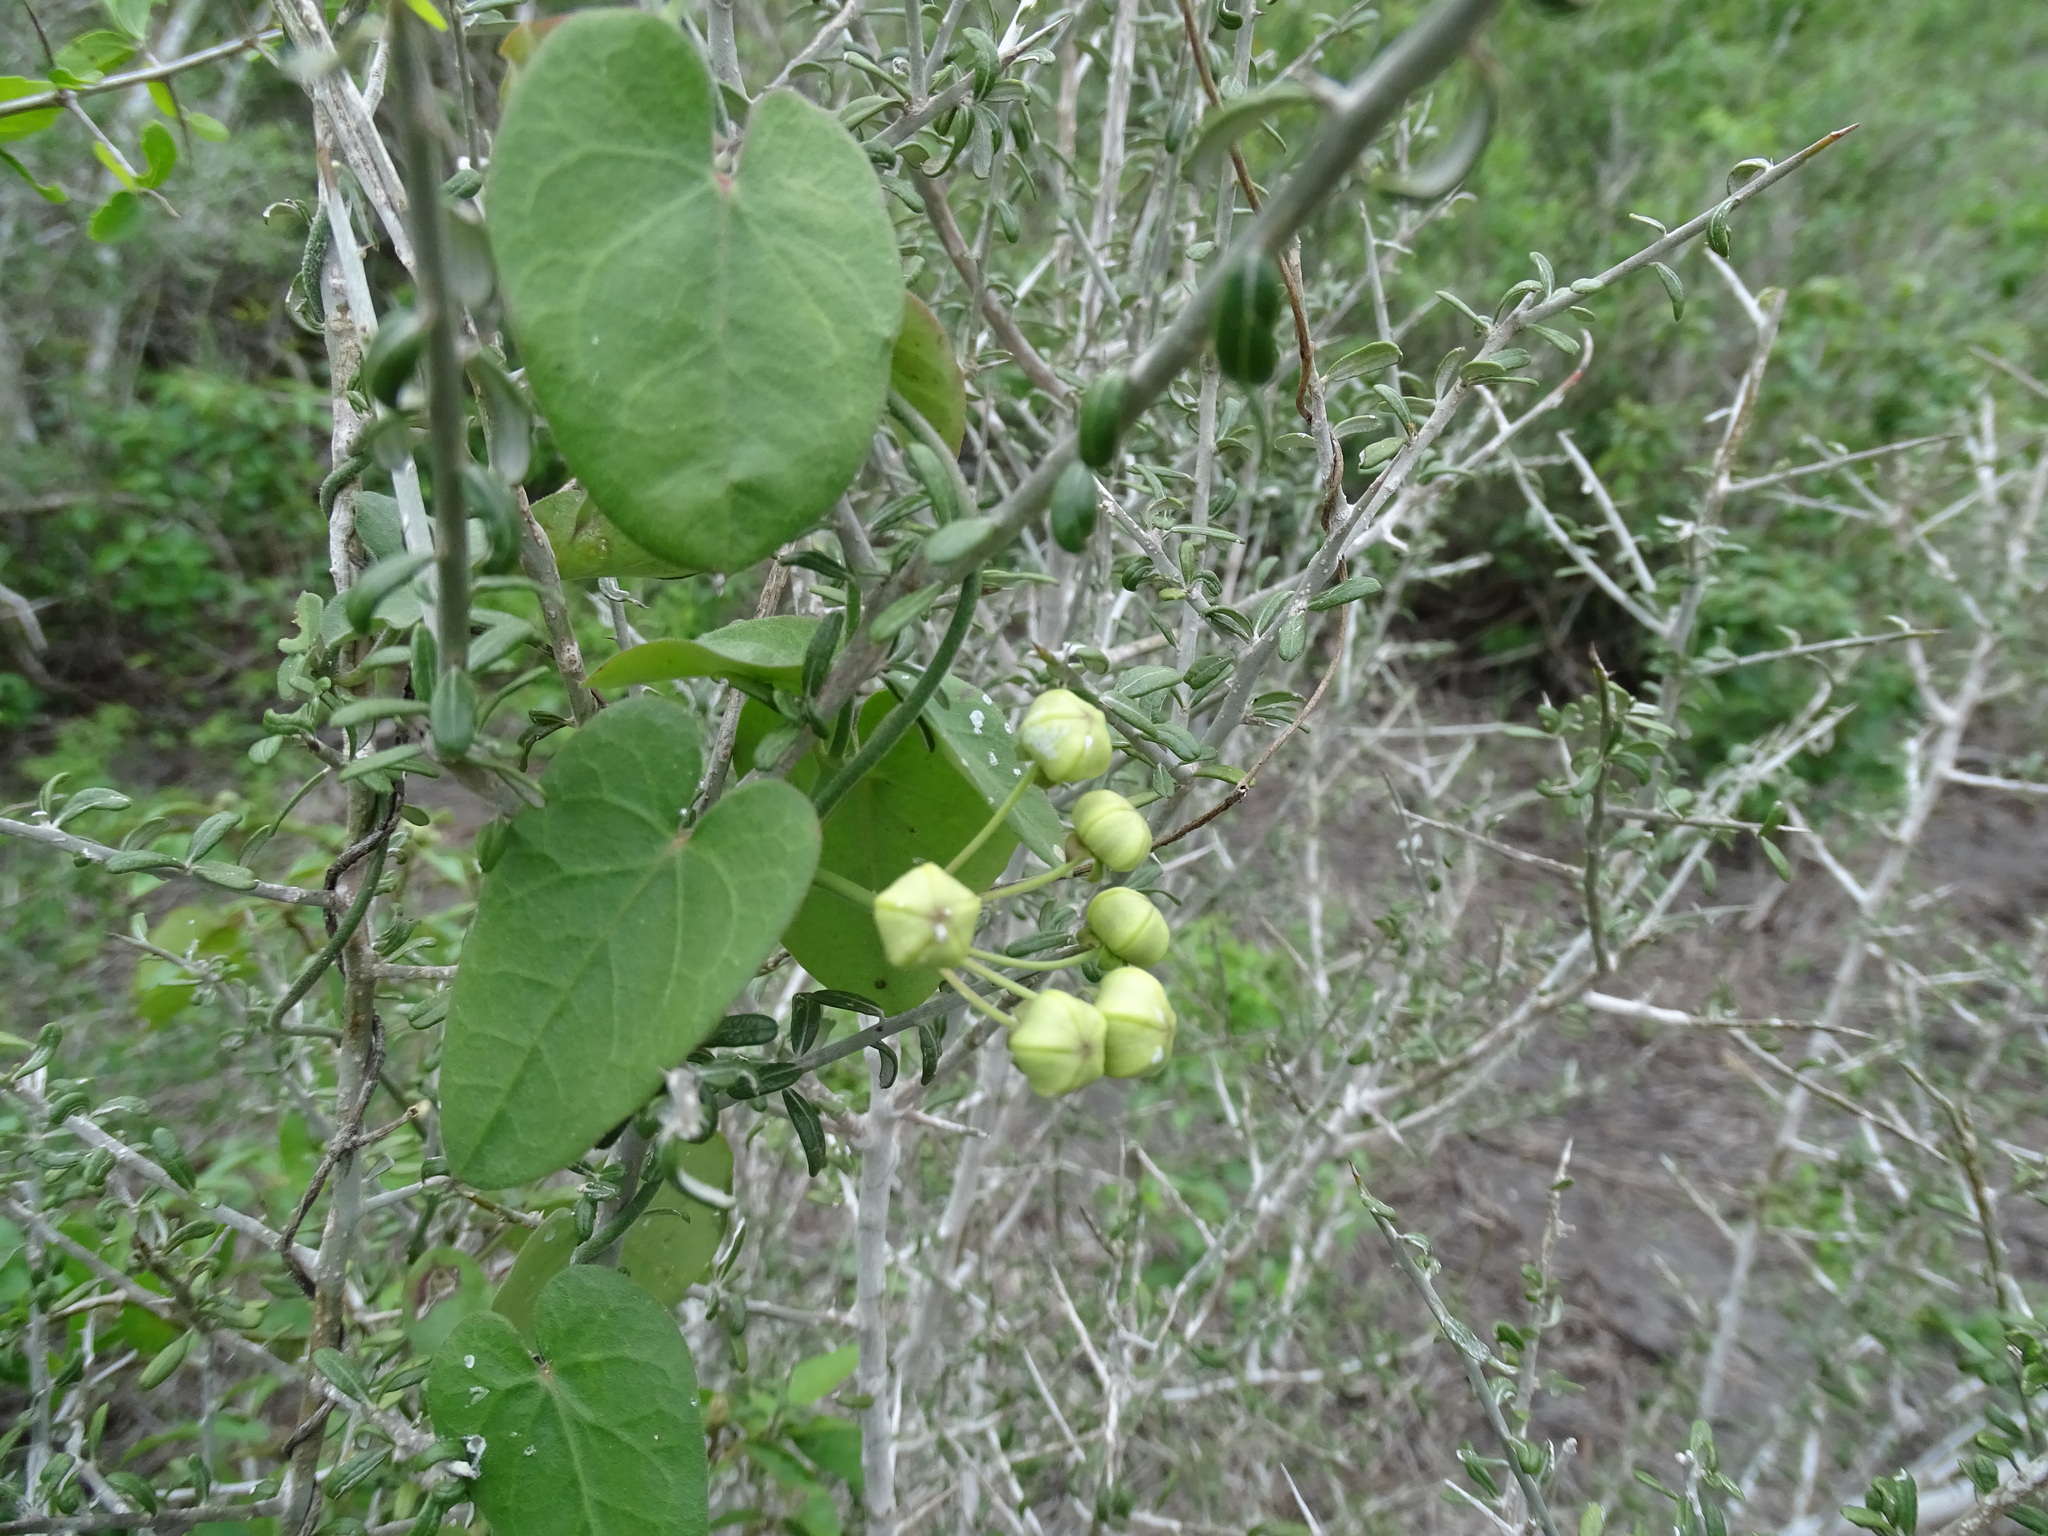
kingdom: Plantae
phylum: Tracheophyta
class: Magnoliopsida
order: Gentianales
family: Apocynaceae
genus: Funastrum
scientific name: Funastrum lindenianum
